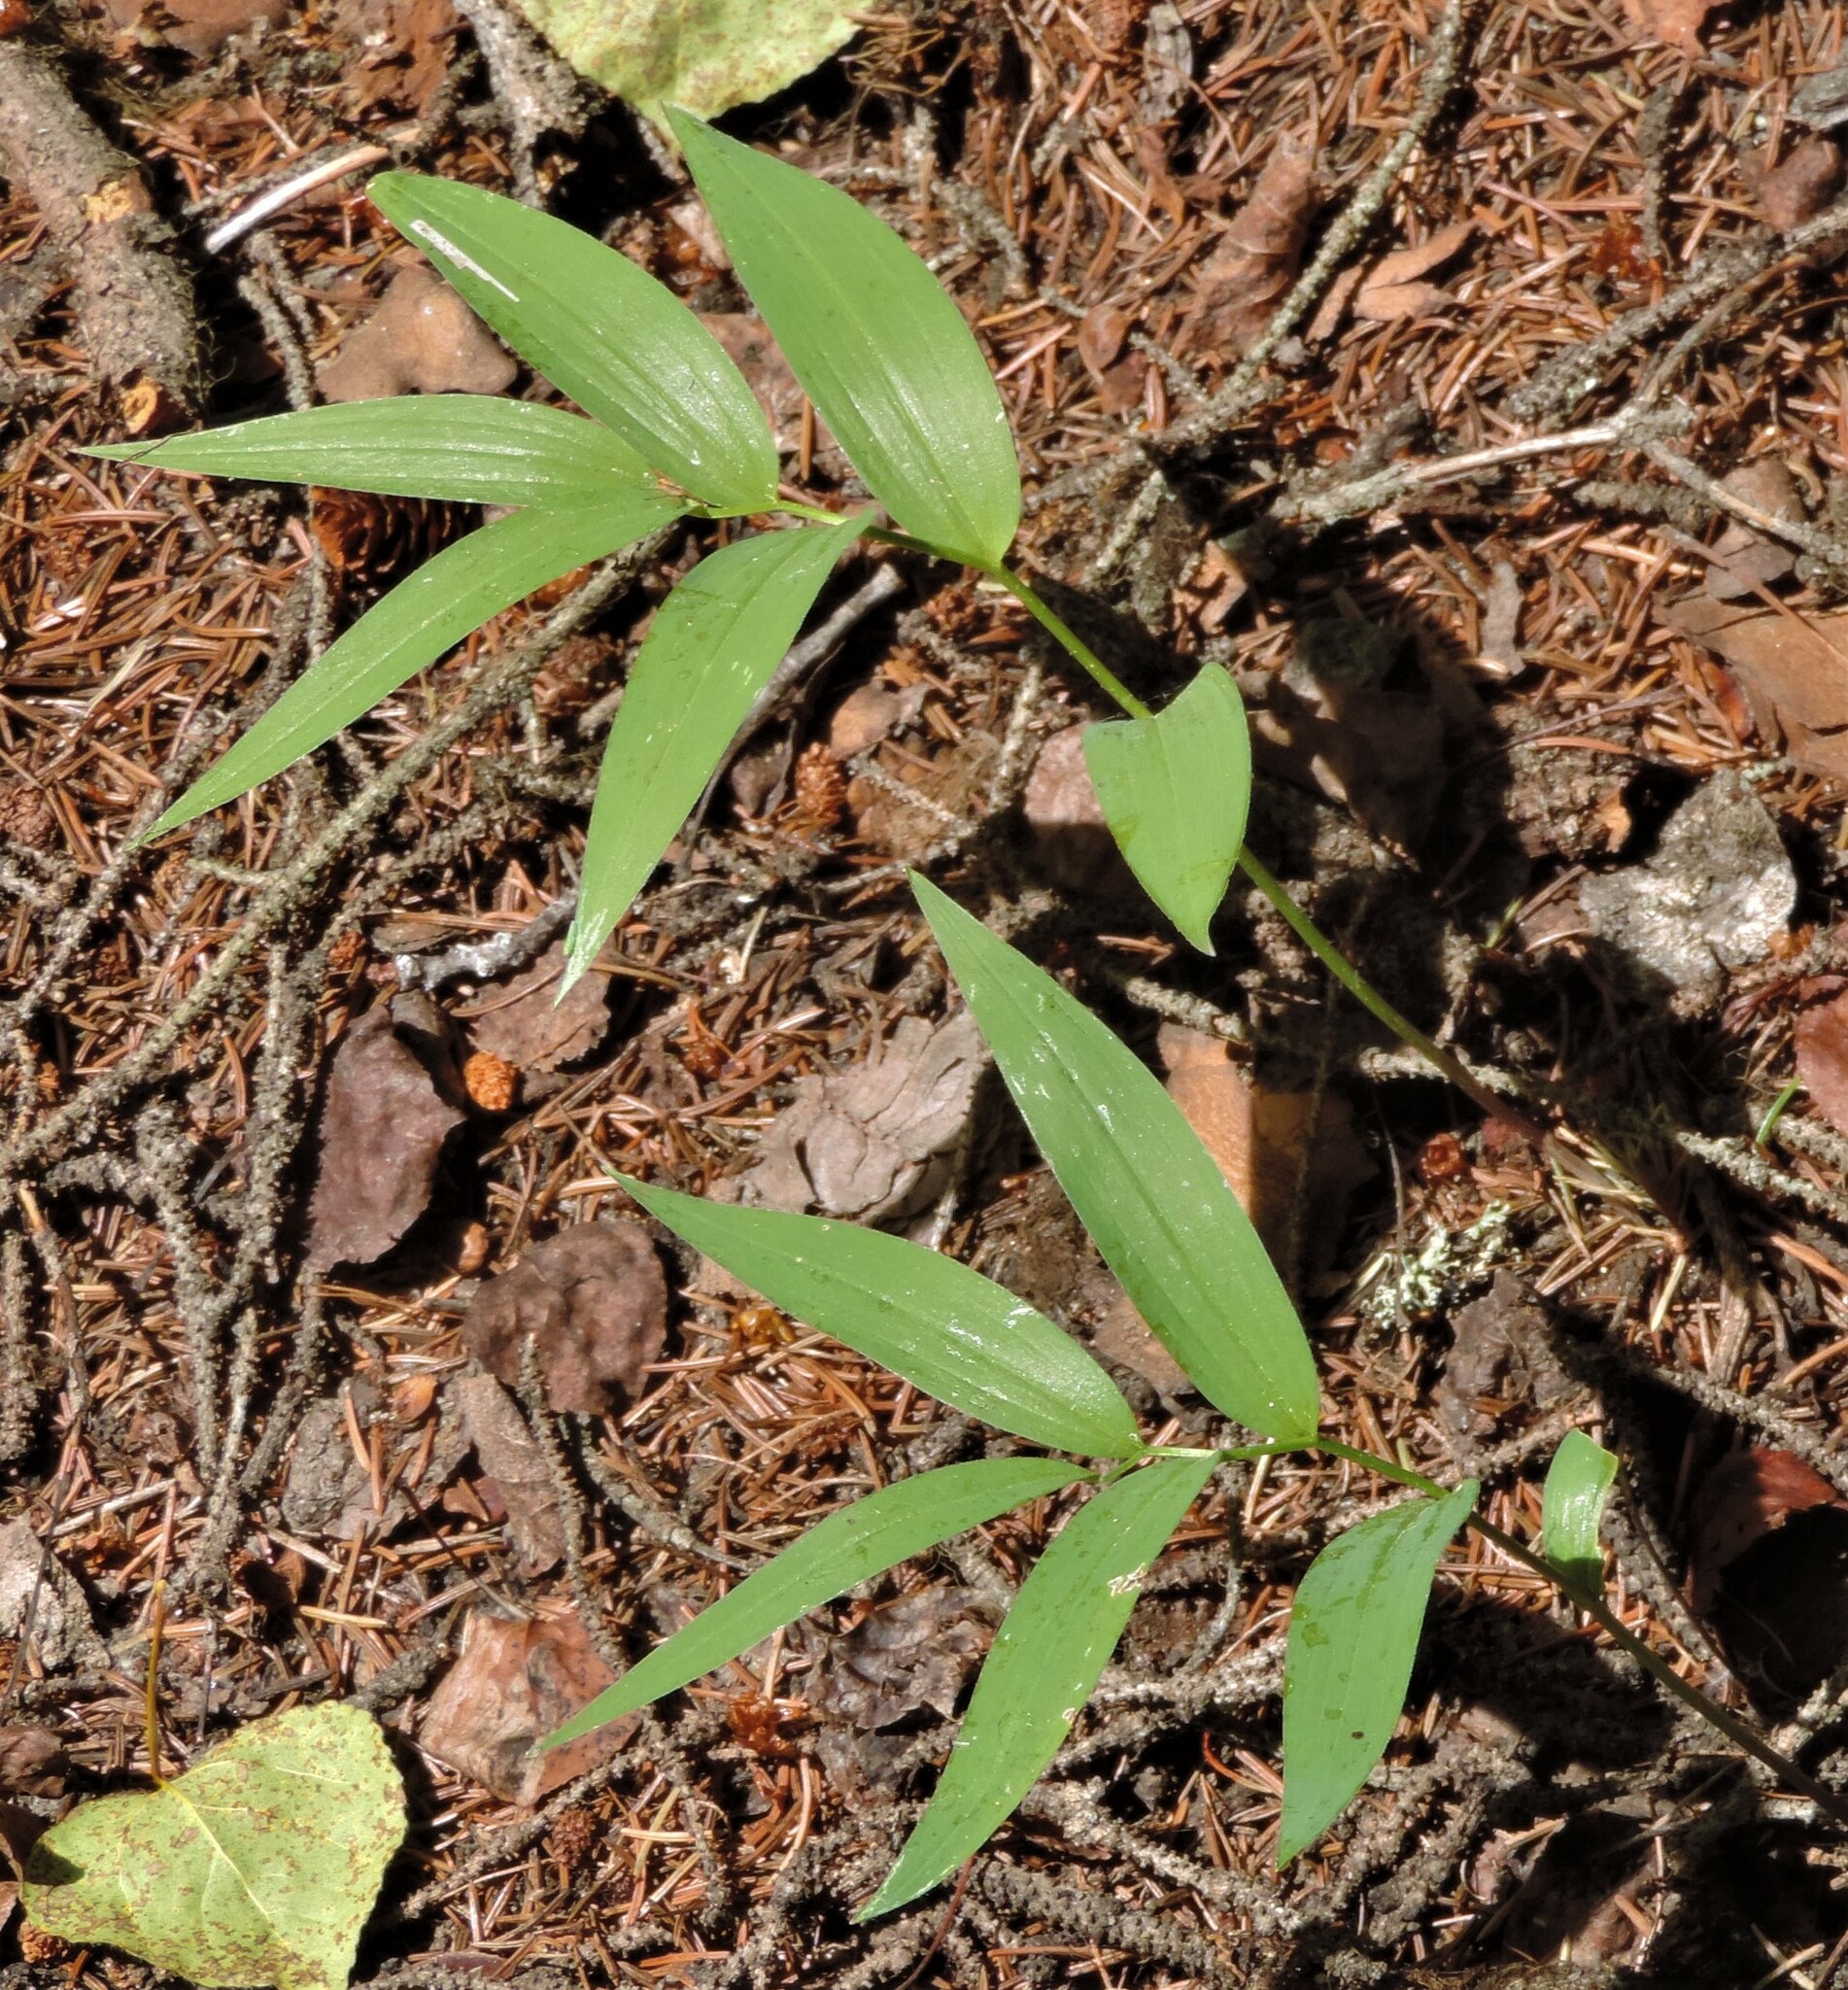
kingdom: Plantae
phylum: Tracheophyta
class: Liliopsida
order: Asparagales
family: Asparagaceae
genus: Maianthemum
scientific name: Maianthemum stellatum
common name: Little false solomon's seal
